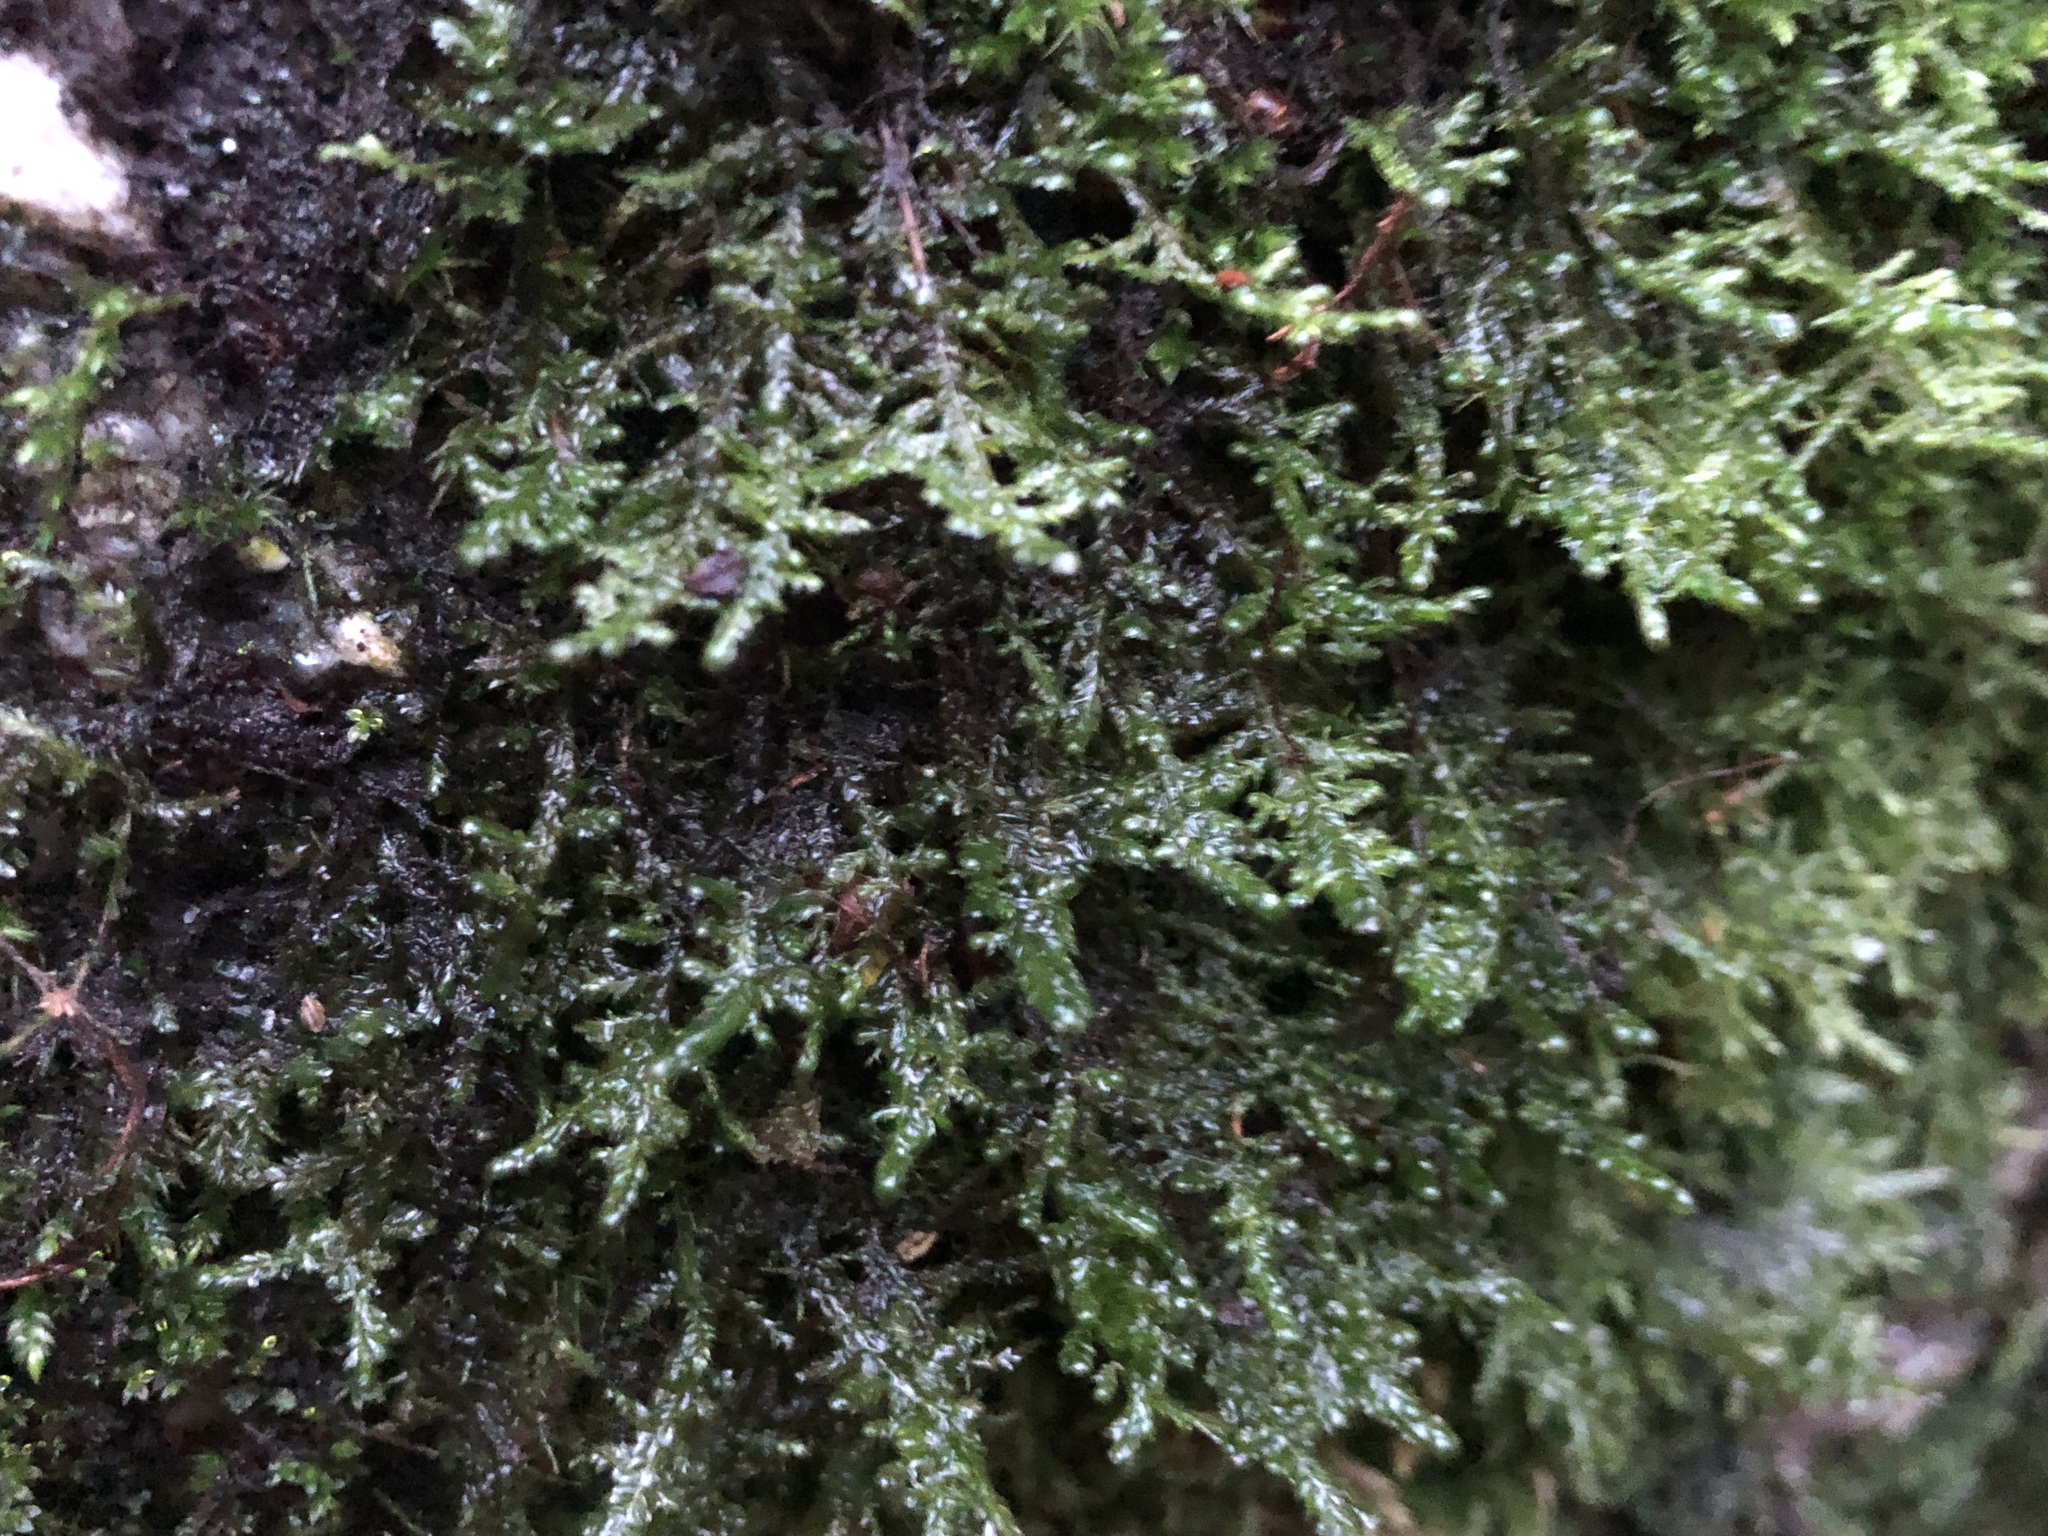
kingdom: Plantae
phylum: Bryophyta
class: Bryopsida
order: Hypnales
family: Neckeraceae
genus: Alleniella
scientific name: Alleniella complanata
